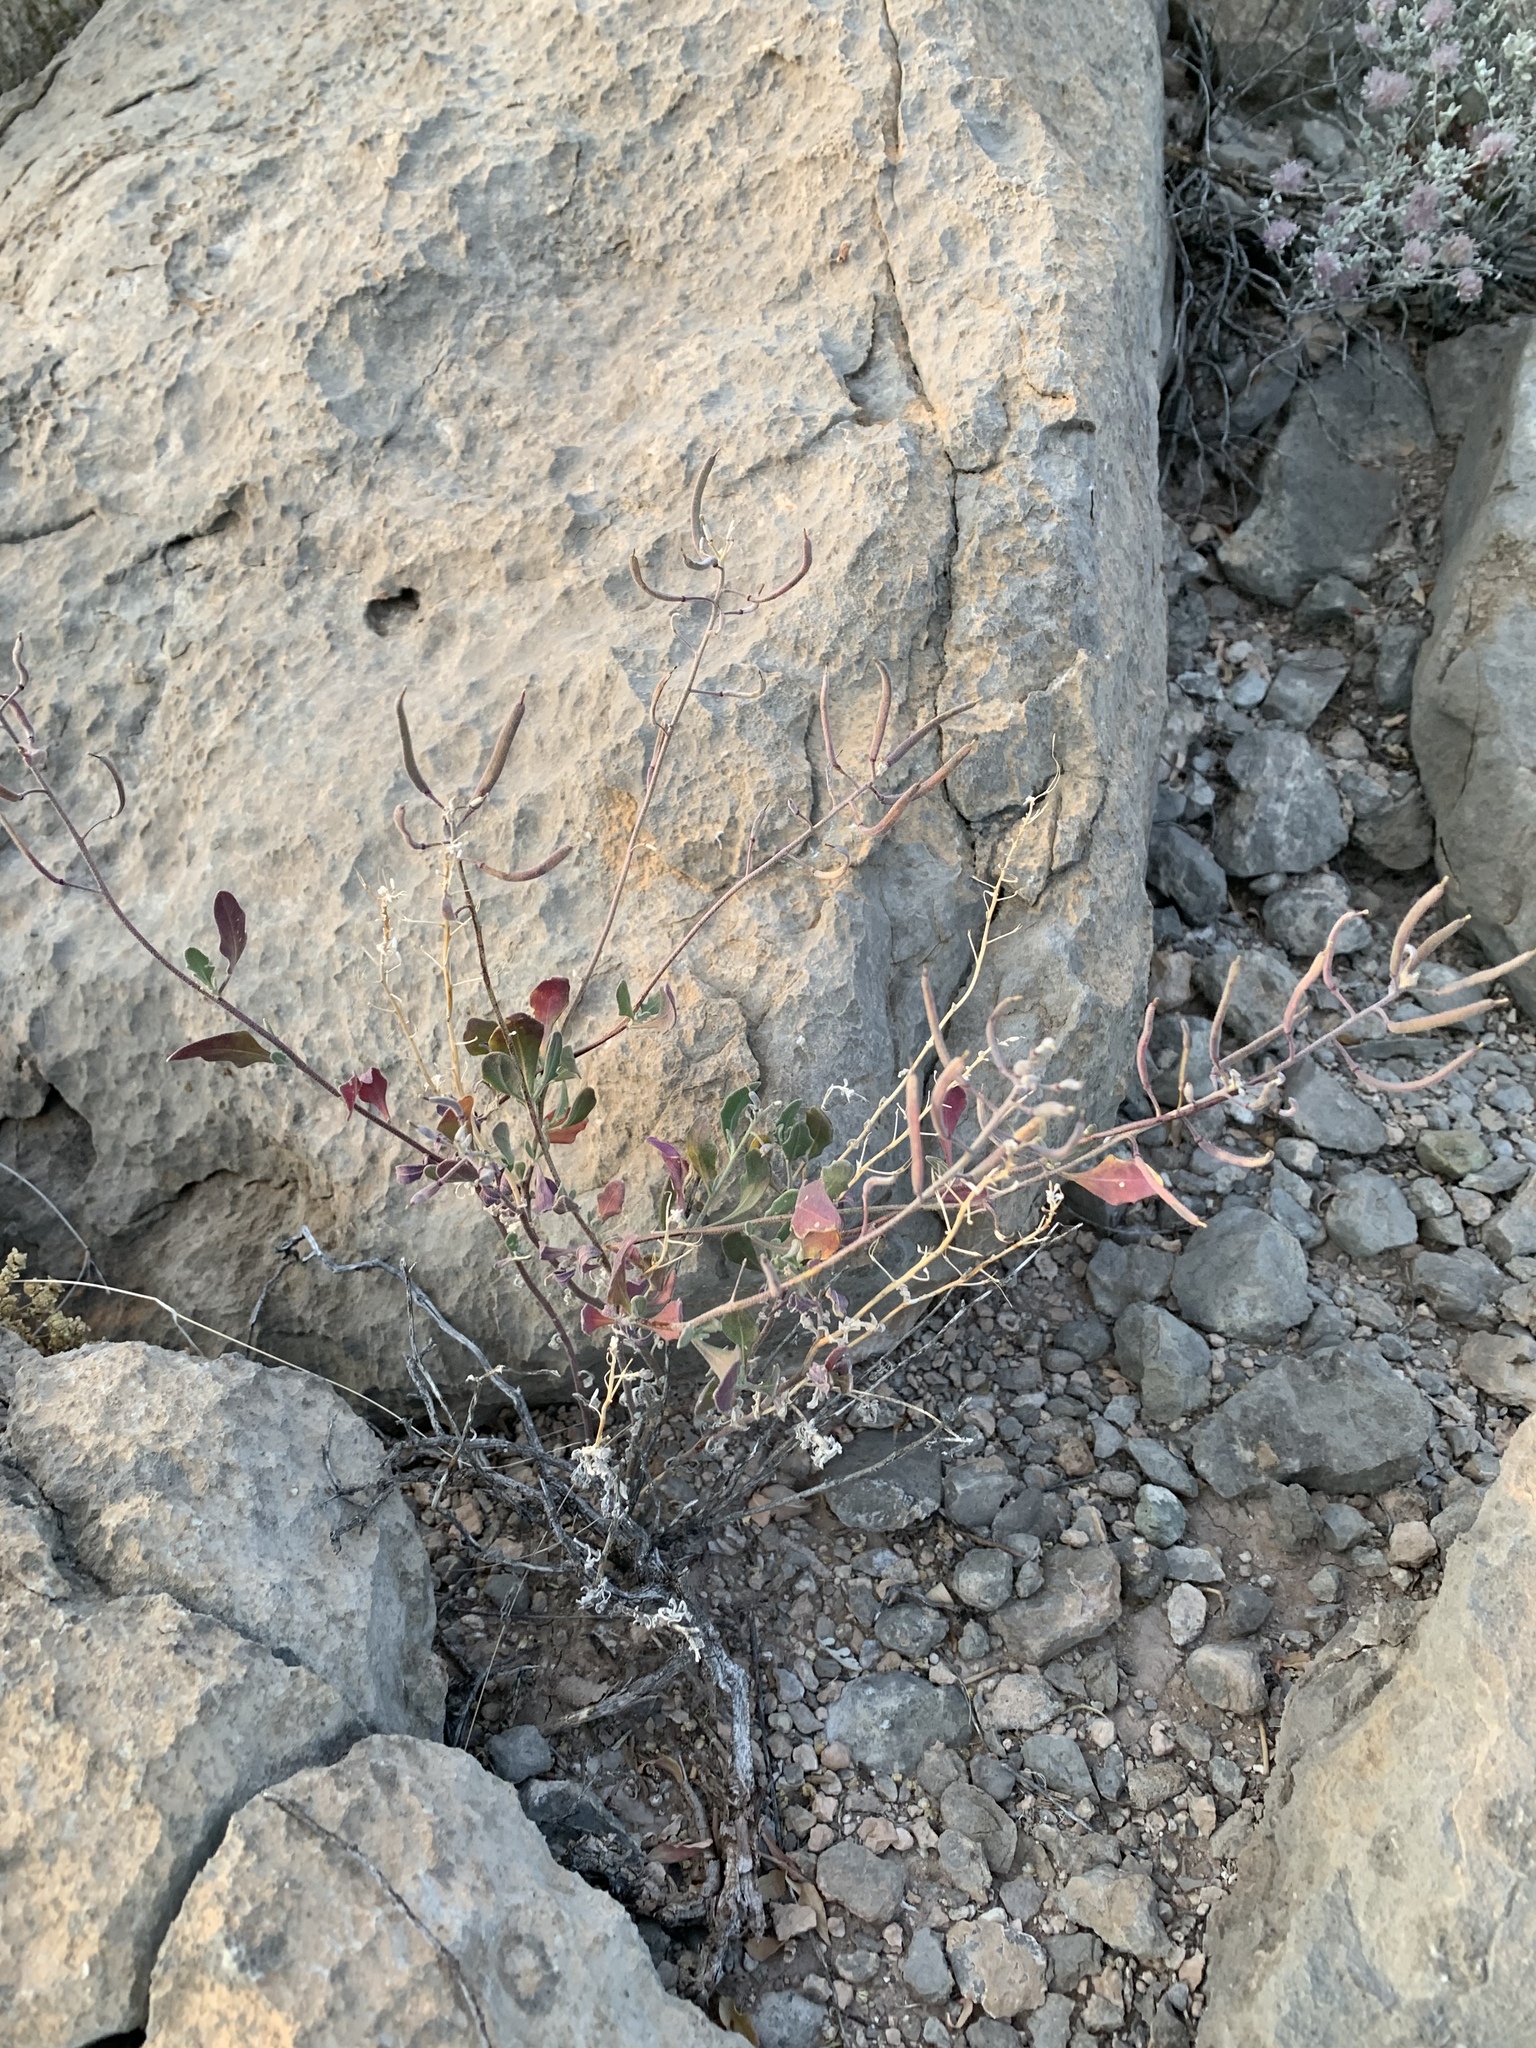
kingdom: Plantae
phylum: Tracheophyta
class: Magnoliopsida
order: Brassicales
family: Brassicaceae
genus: Nerisyrenia
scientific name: Nerisyrenia camporum
